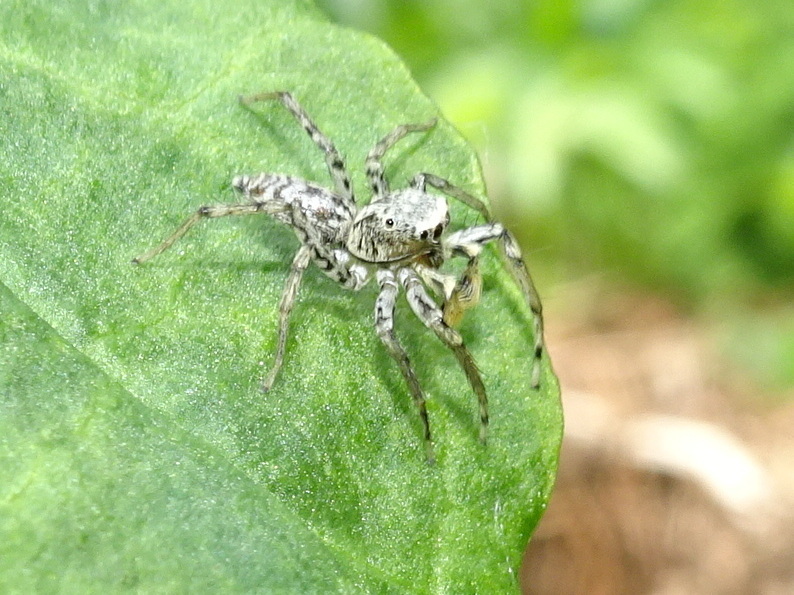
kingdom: Animalia
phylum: Arthropoda
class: Arachnida
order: Araneae
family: Salticidae
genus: Maevia
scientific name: Maevia inclemens
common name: Dimorphic jumper
